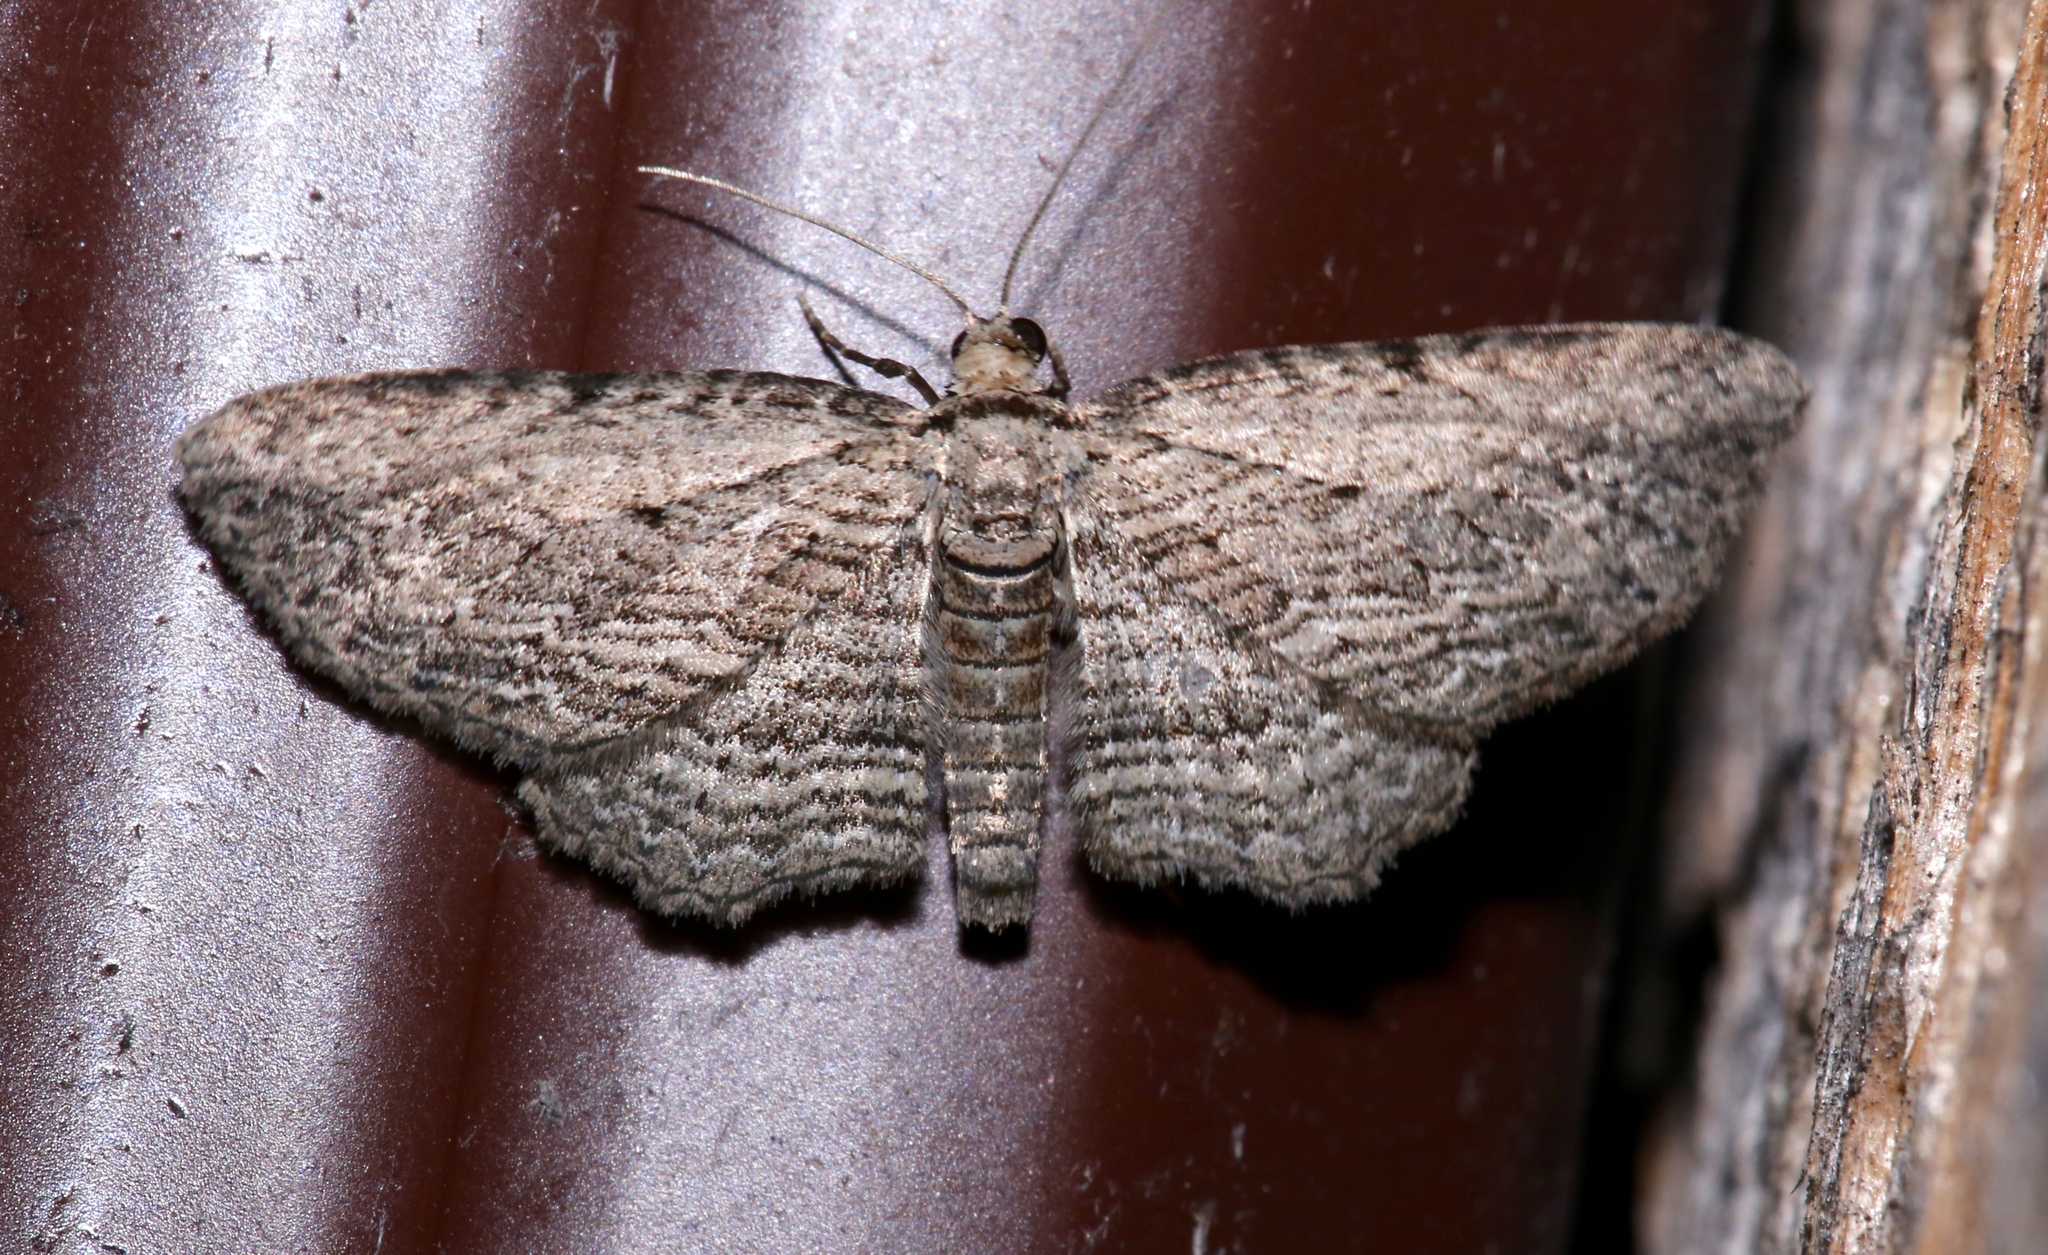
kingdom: Animalia
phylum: Arthropoda
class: Insecta
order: Lepidoptera
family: Geometridae
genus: Horisme
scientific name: Horisme intestinata
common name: Brown bark carpet
